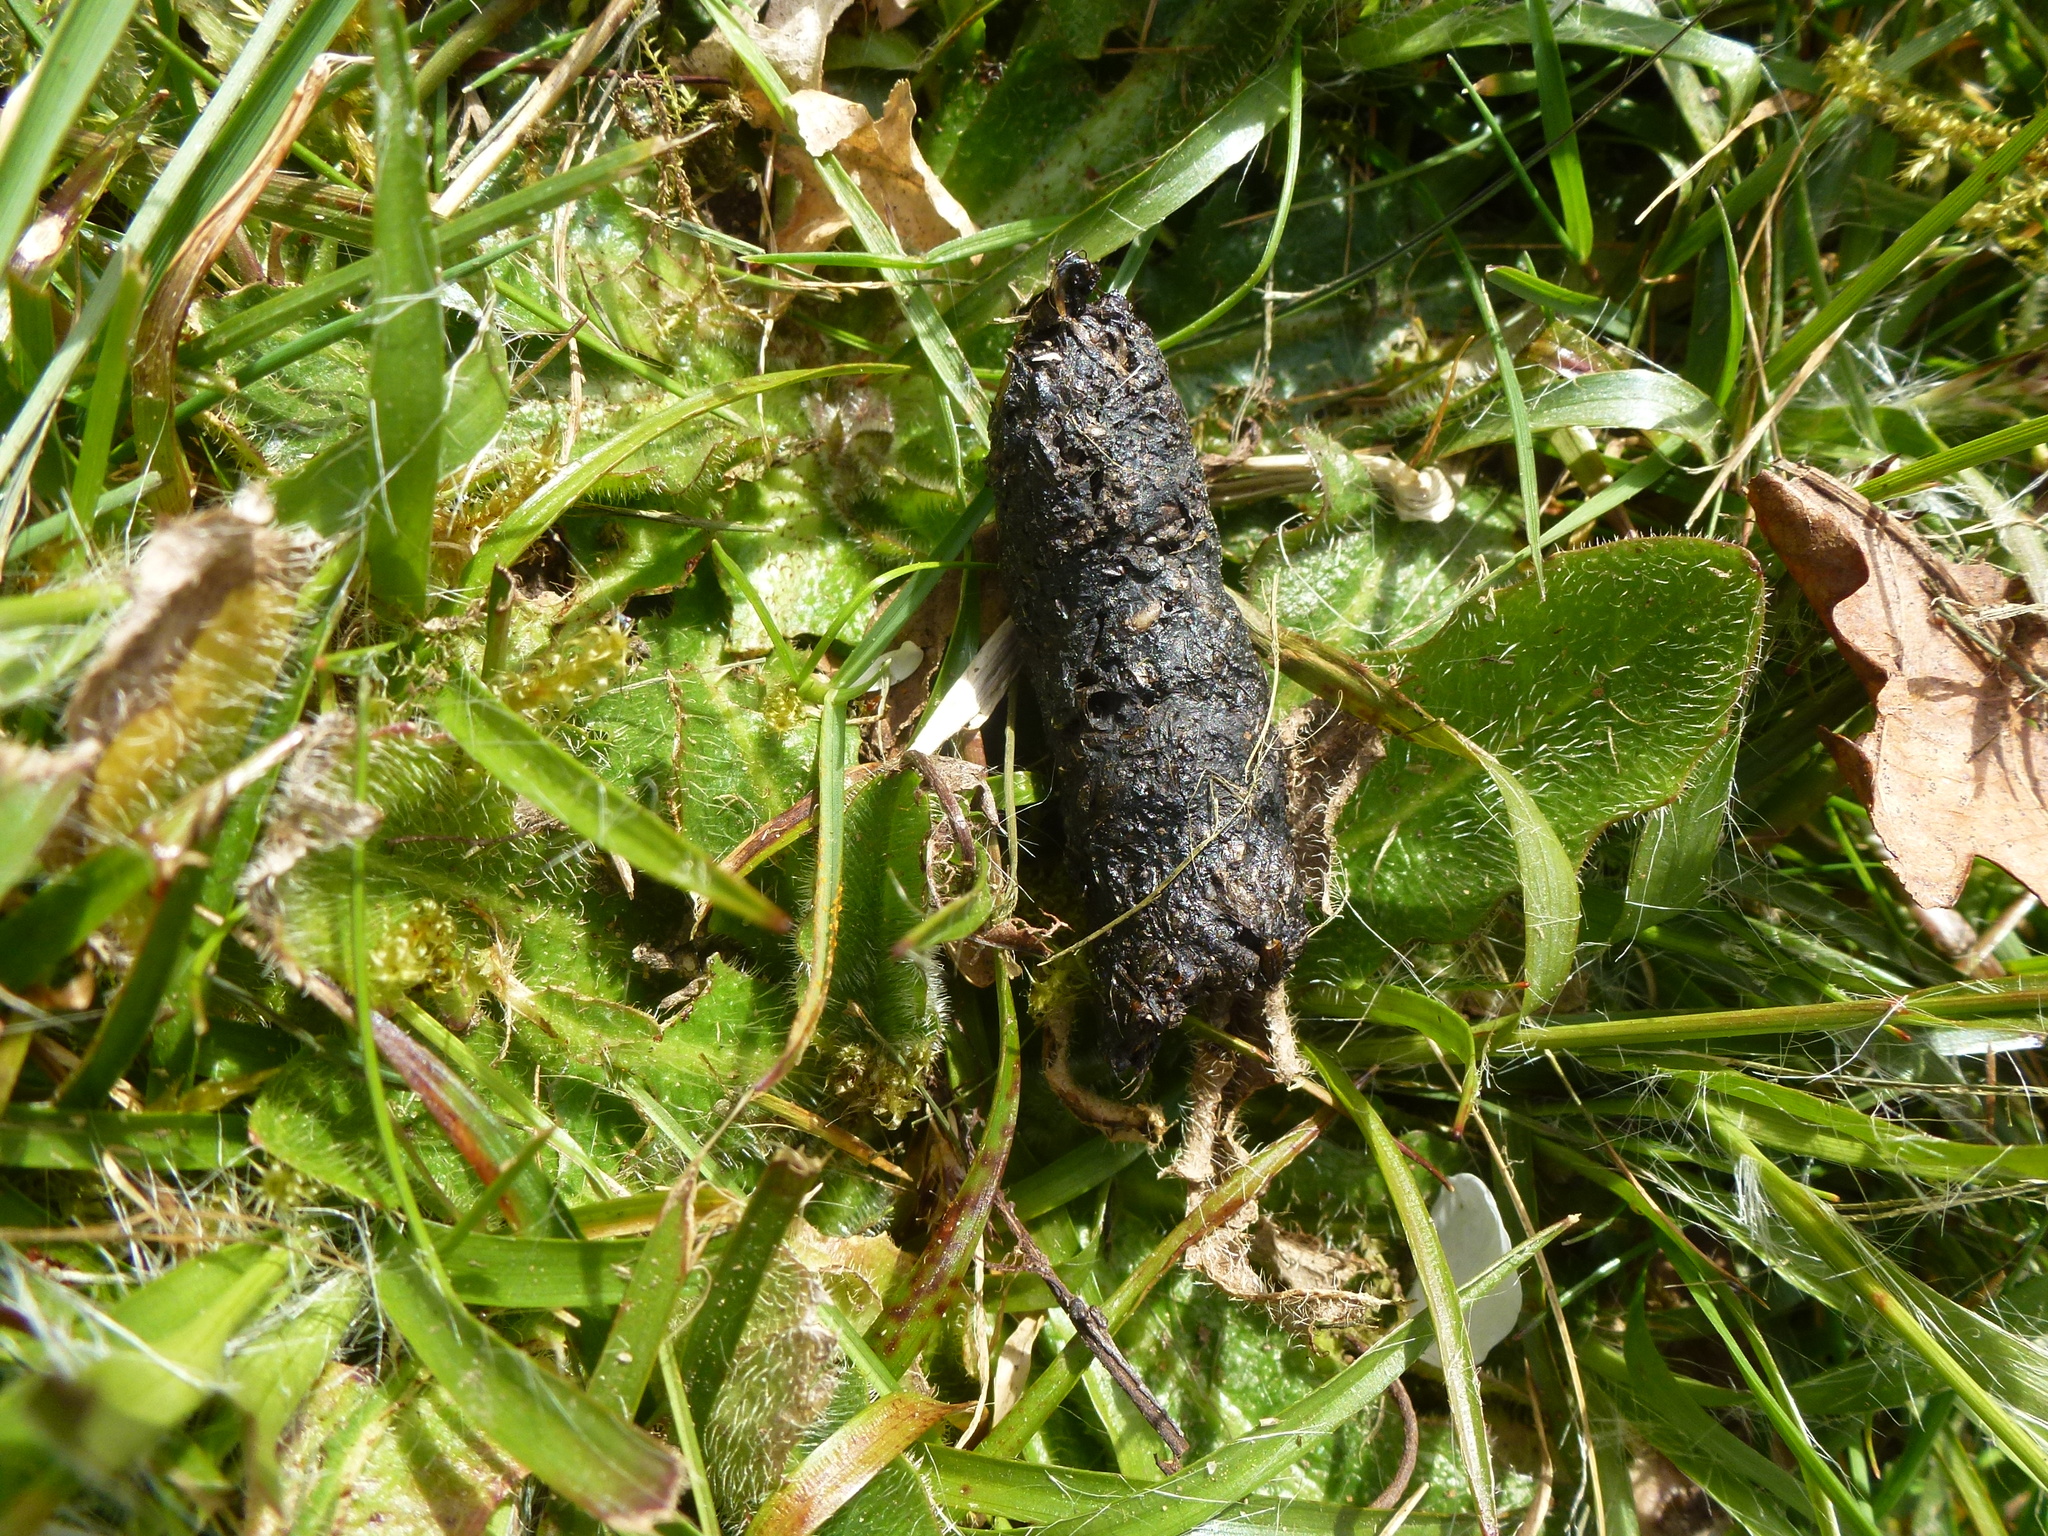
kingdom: Animalia
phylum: Chordata
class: Mammalia
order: Erinaceomorpha
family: Erinaceidae
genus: Erinaceus
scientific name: Erinaceus europaeus
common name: West european hedgehog
